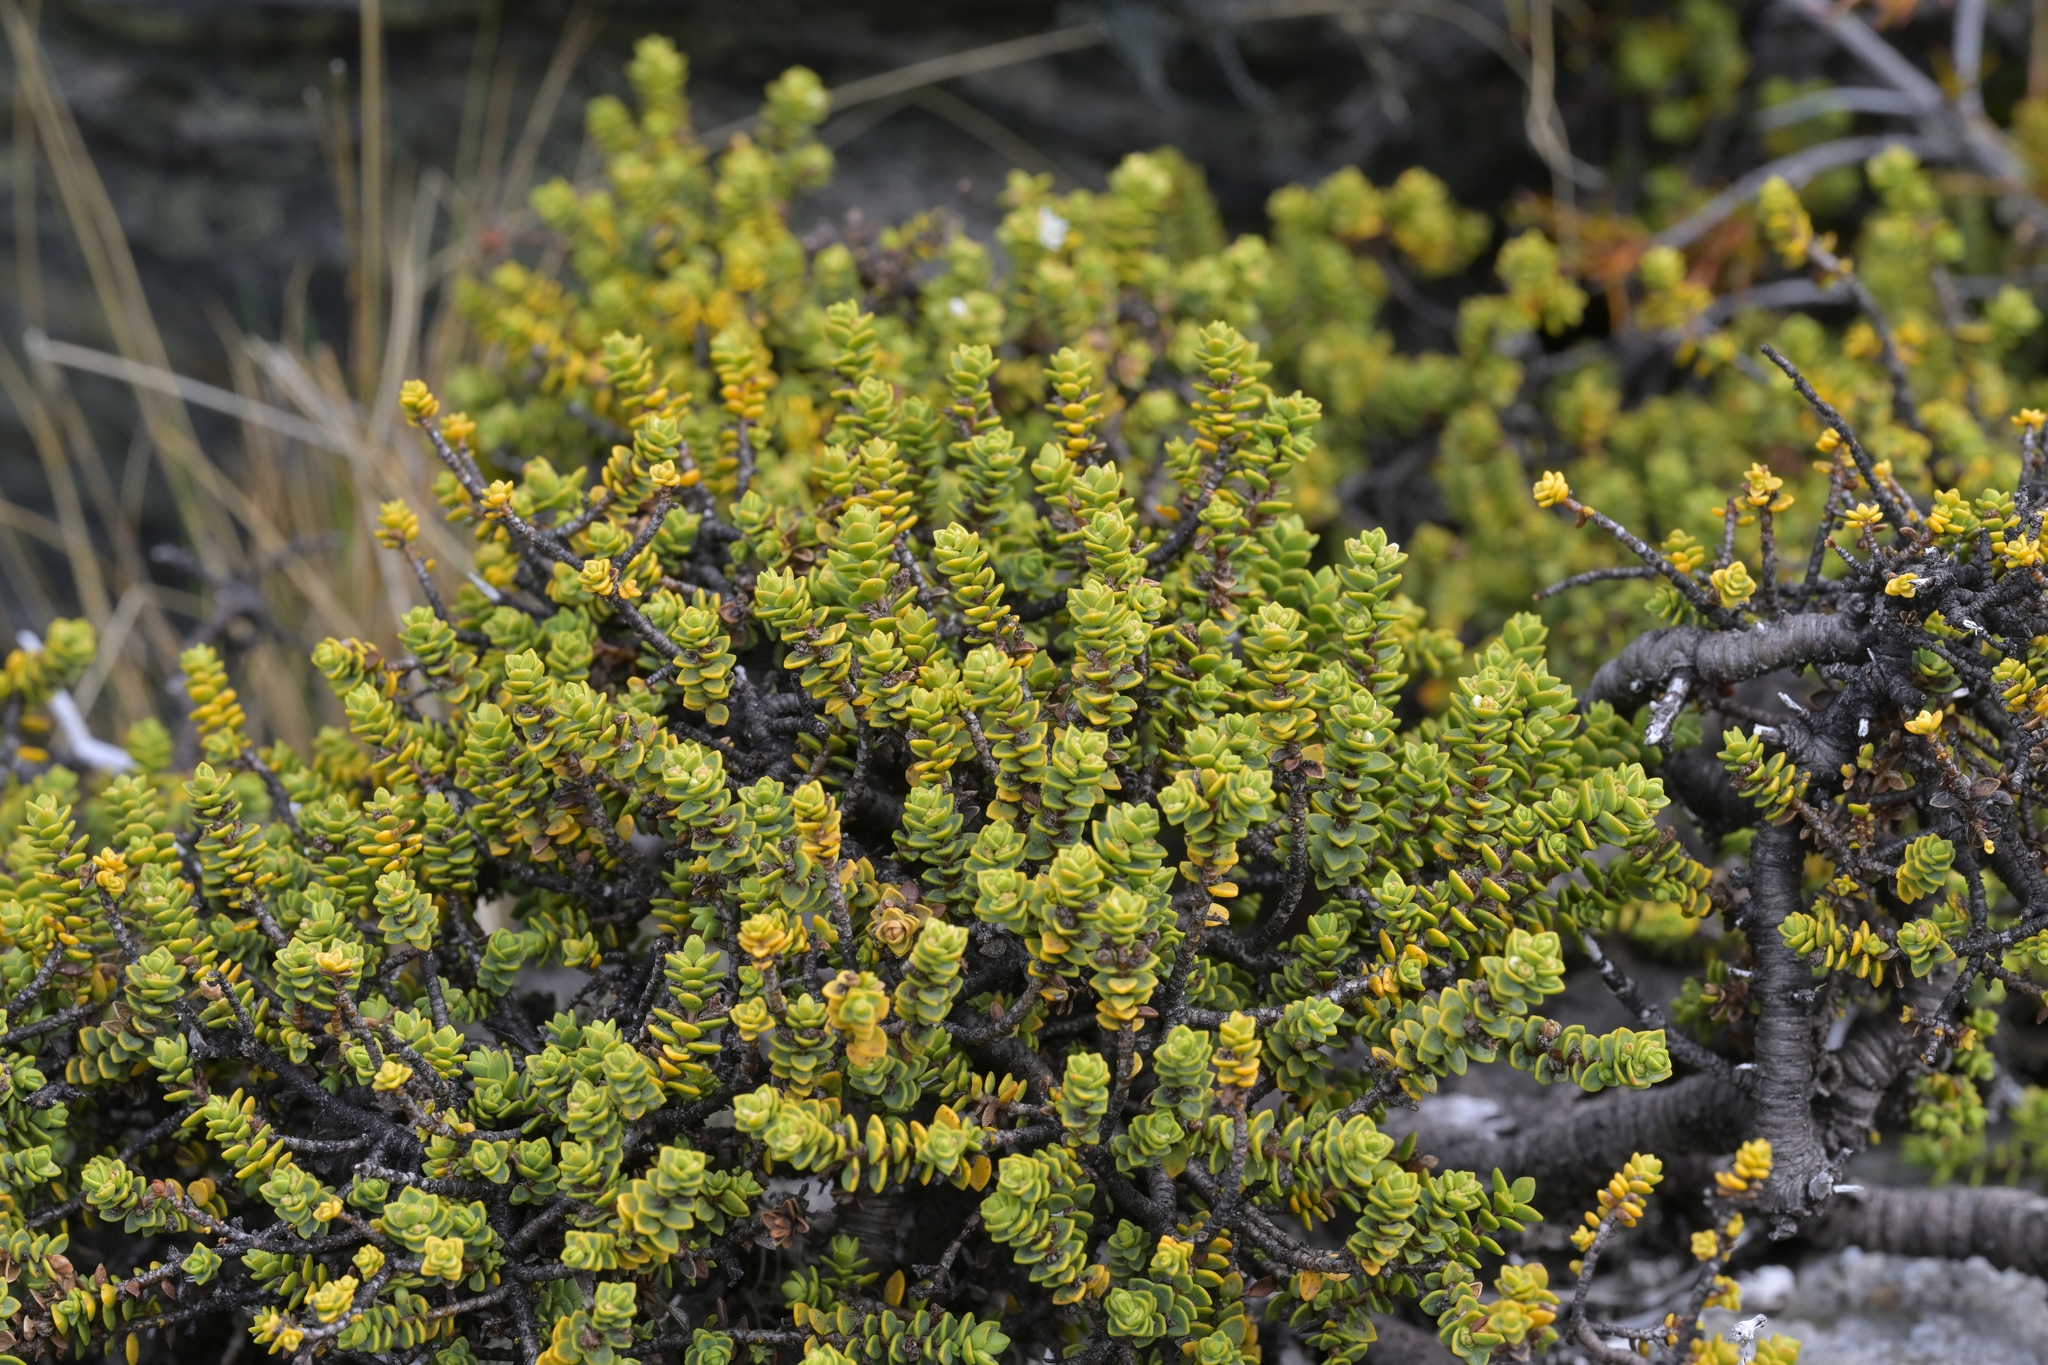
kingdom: Plantae
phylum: Tracheophyta
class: Magnoliopsida
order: Lamiales
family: Plantaginaceae
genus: Veronica
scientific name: Veronica buchananii
